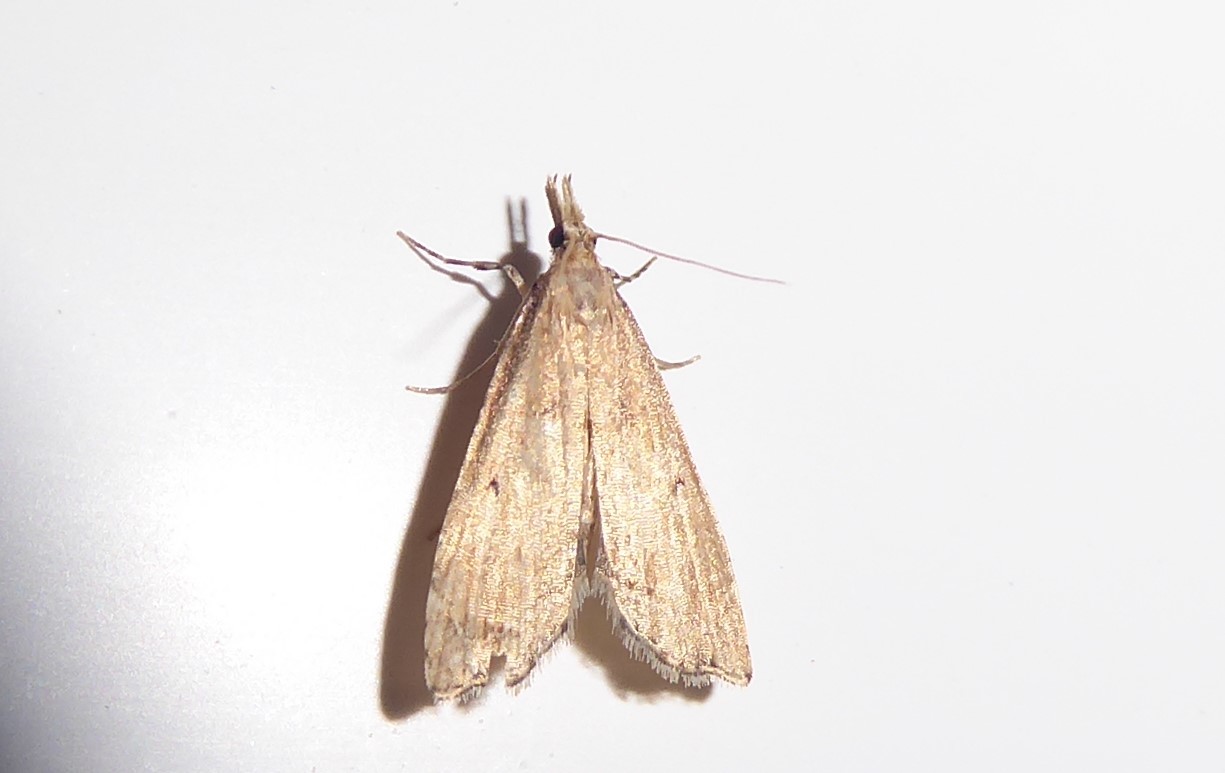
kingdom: Animalia
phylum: Arthropoda
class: Insecta
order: Lepidoptera
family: Crambidae
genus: Diplopseustis
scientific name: Diplopseustis perieresalis
